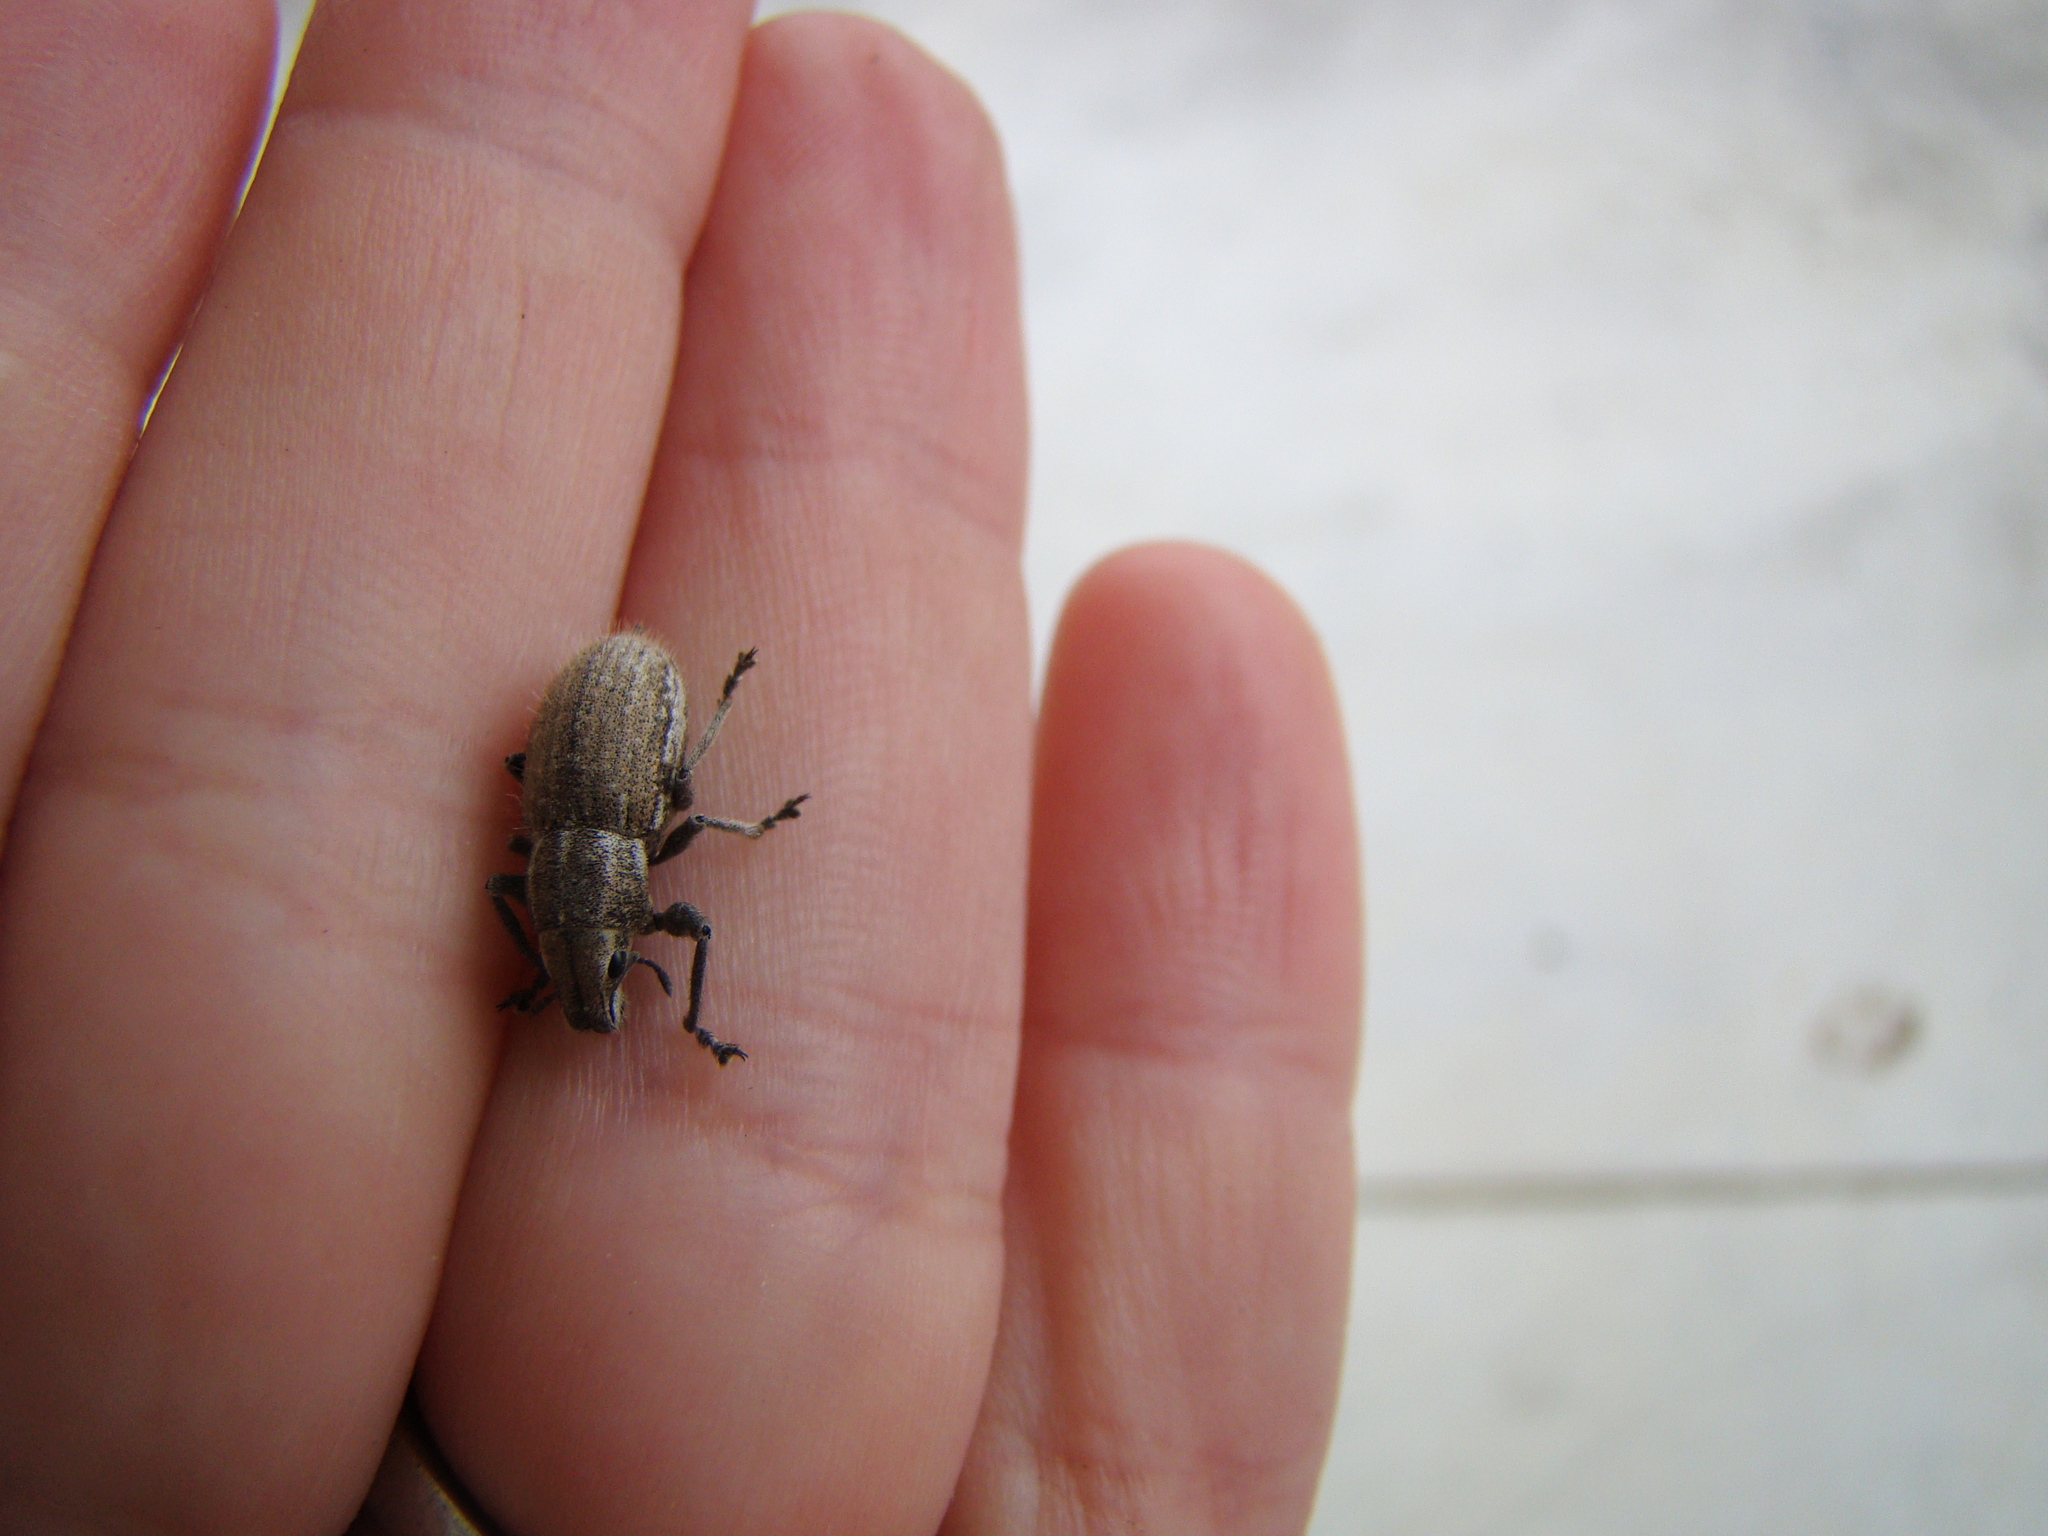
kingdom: Animalia
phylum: Arthropoda
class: Insecta
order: Coleoptera
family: Curculionidae
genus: Naupactus
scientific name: Naupactus leucoloma
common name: Whitefringed beetle
